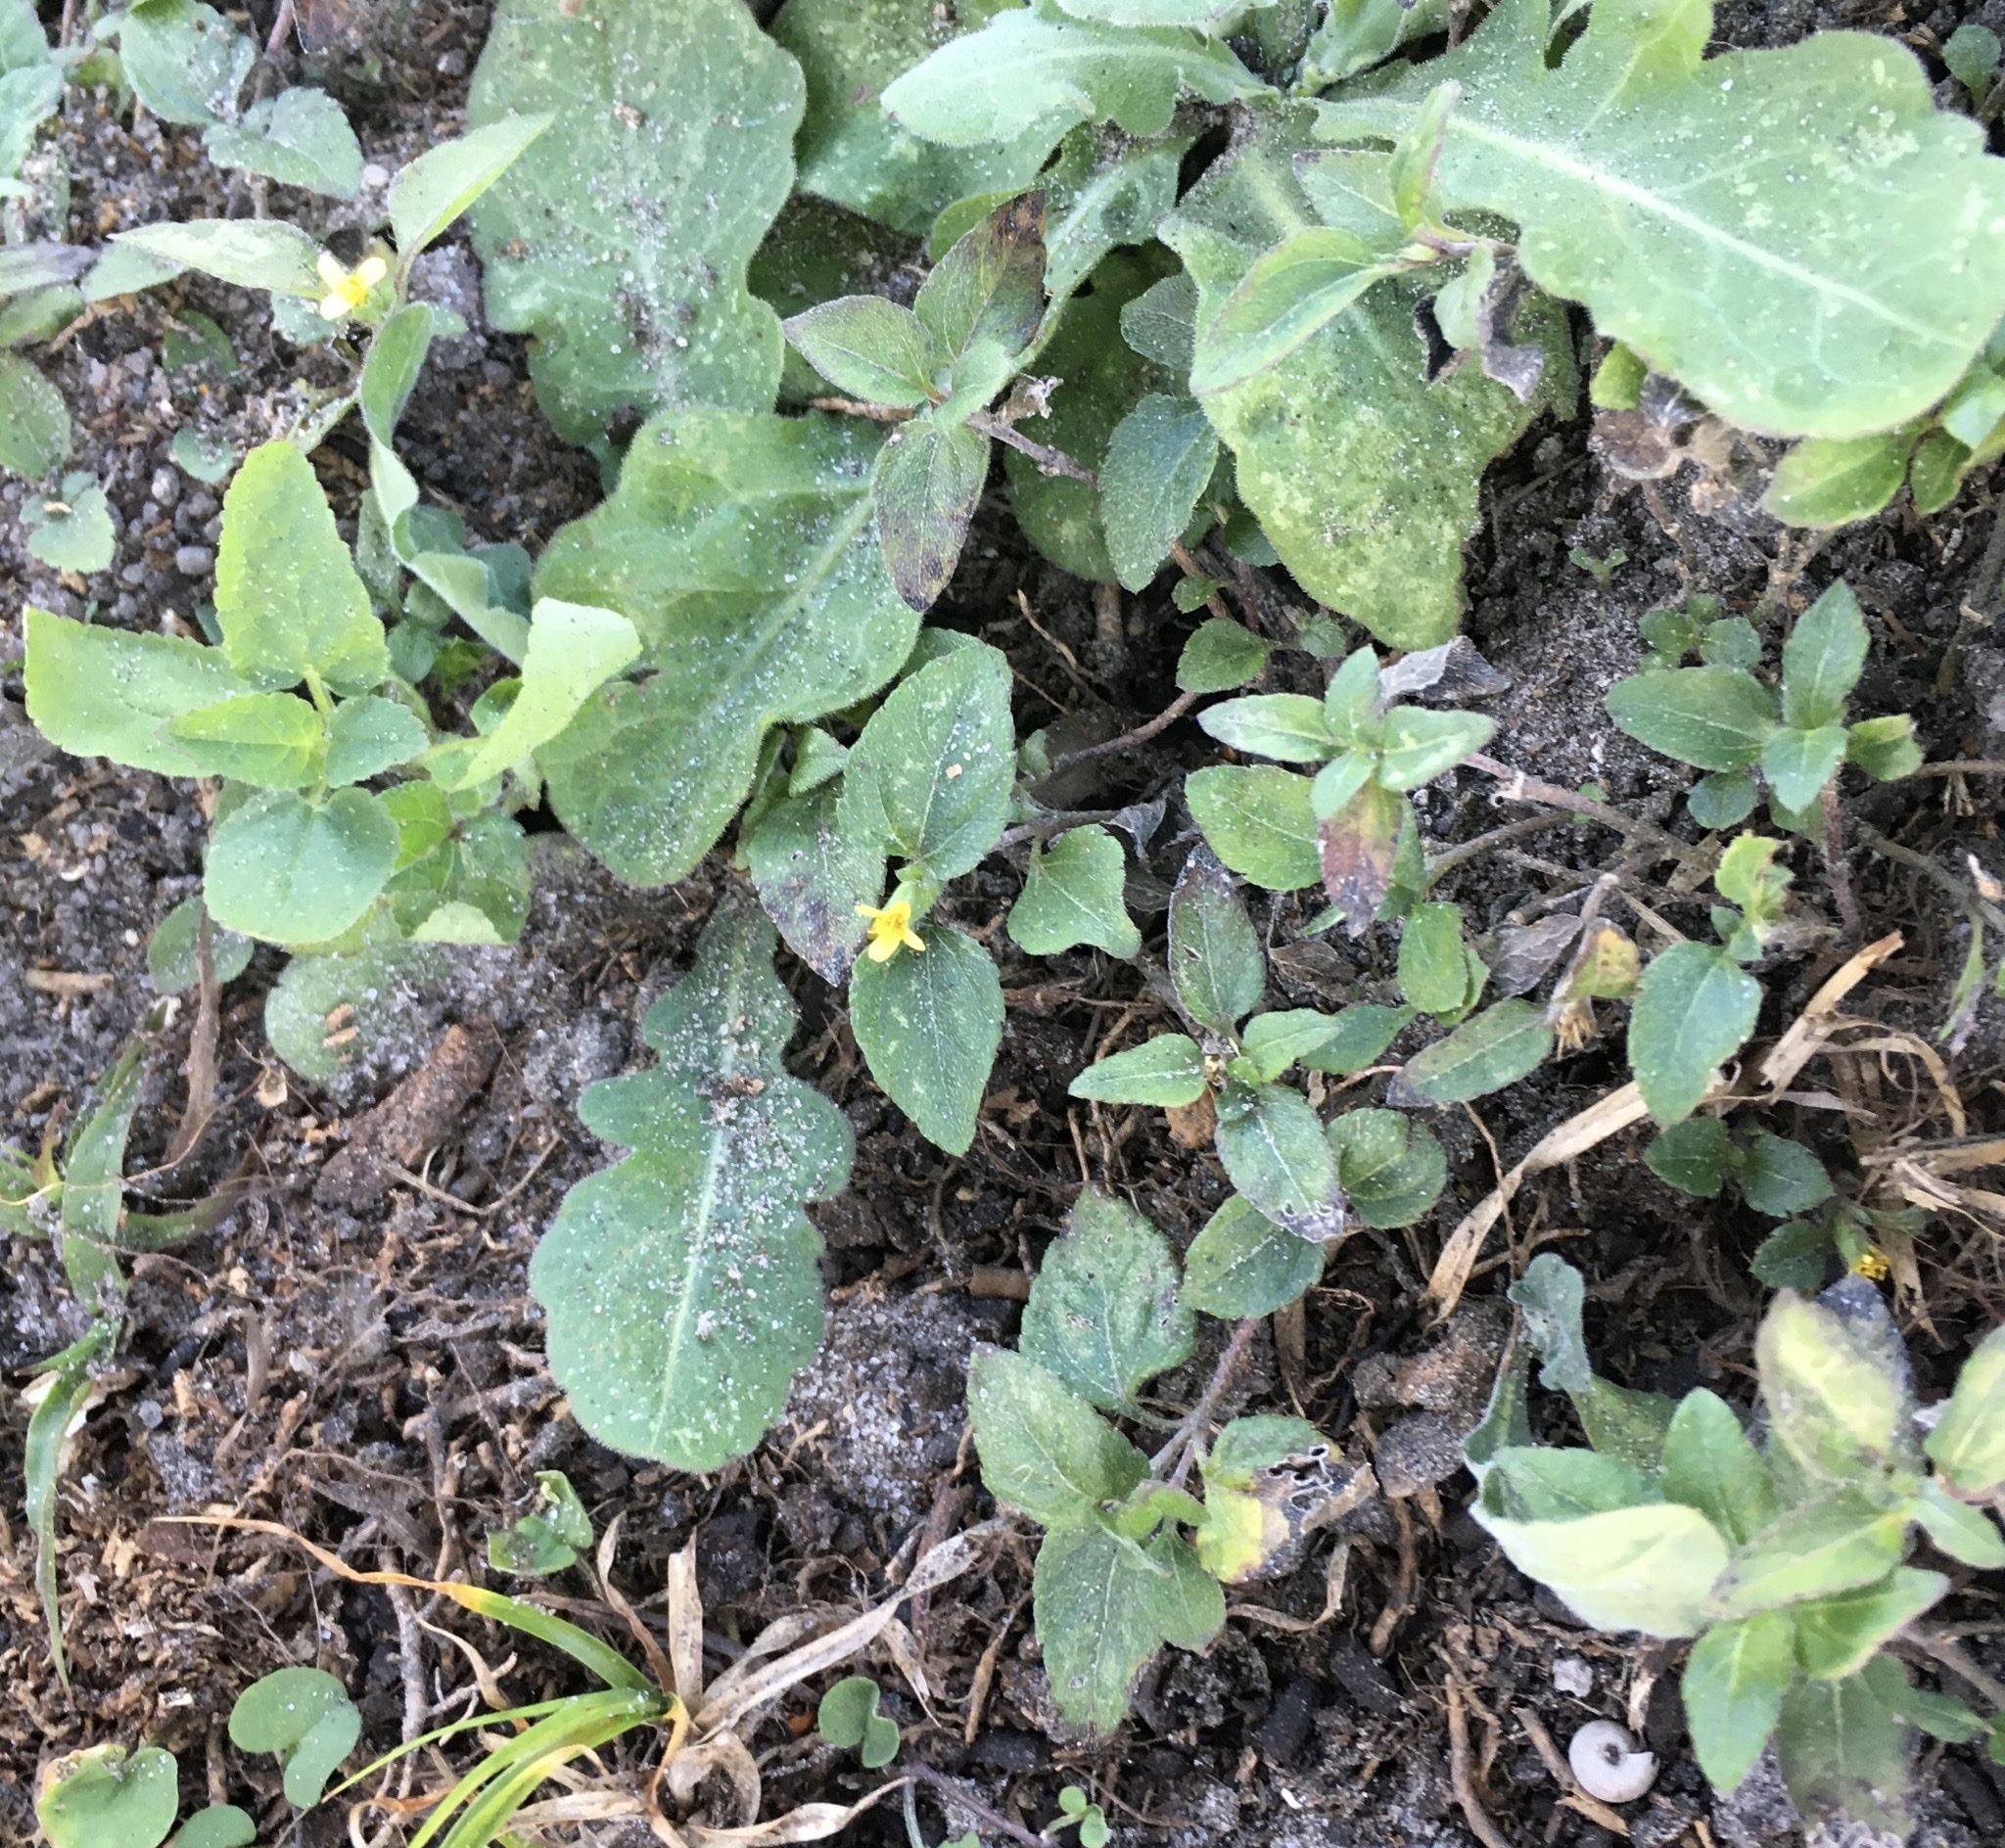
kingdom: Plantae
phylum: Tracheophyta
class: Magnoliopsida
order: Asterales
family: Asteraceae
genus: Calyptocarpus
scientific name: Calyptocarpus vialis
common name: Straggler daisy
